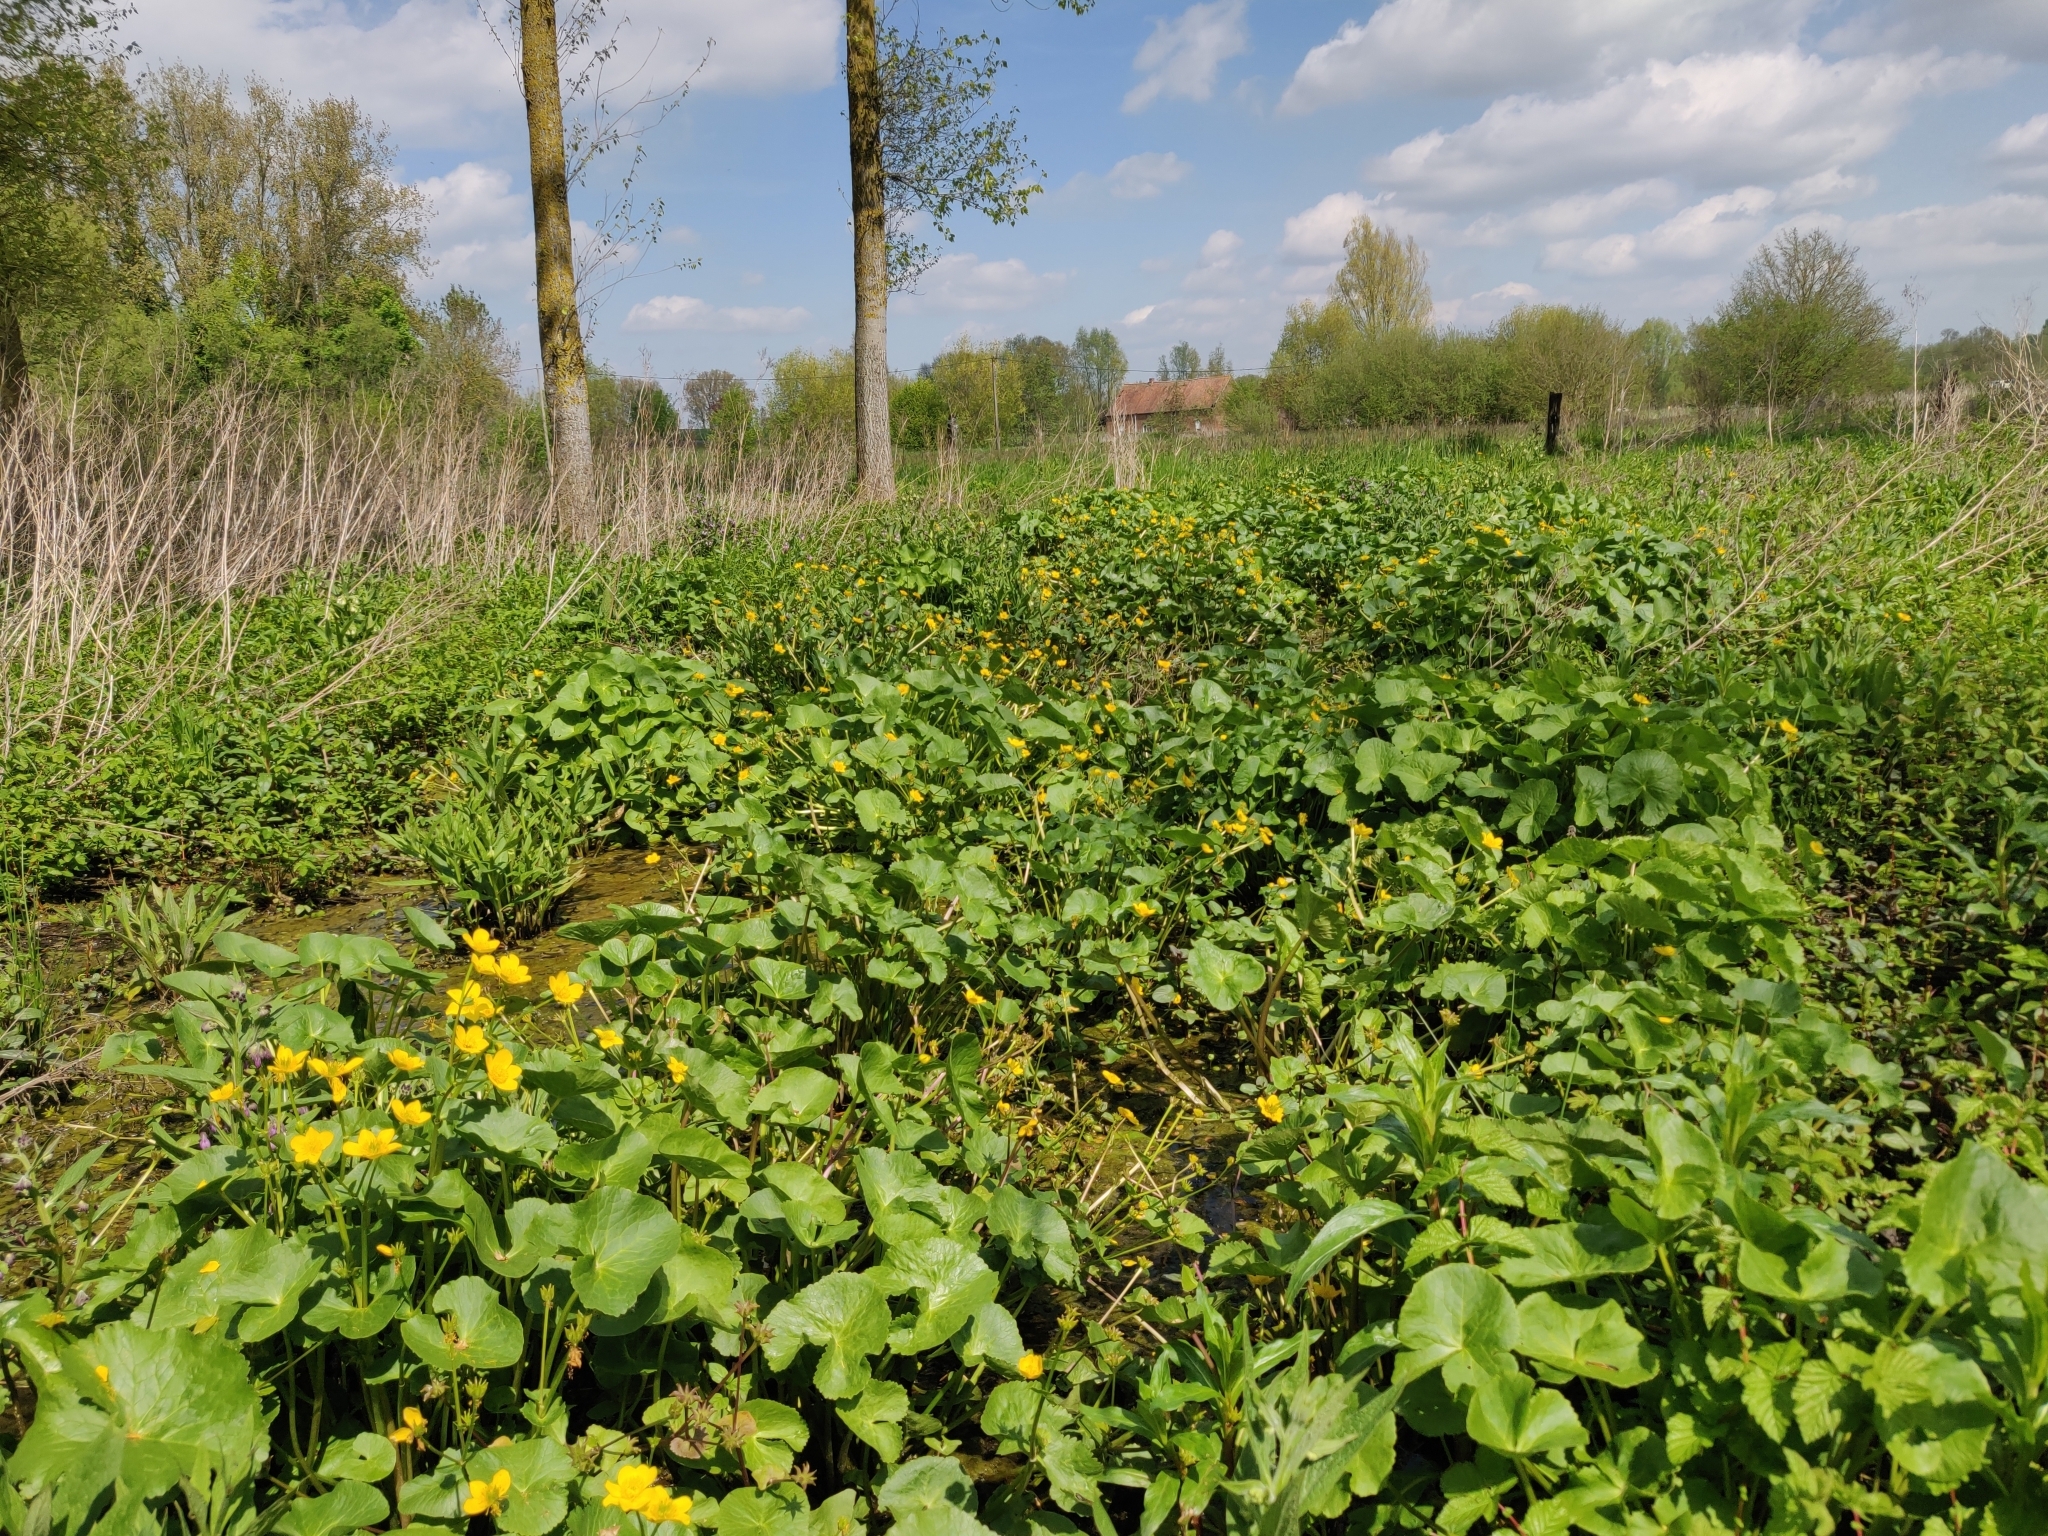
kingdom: Plantae
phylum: Tracheophyta
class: Magnoliopsida
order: Ranunculales
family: Ranunculaceae
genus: Caltha
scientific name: Caltha palustris
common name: Marsh marigold
